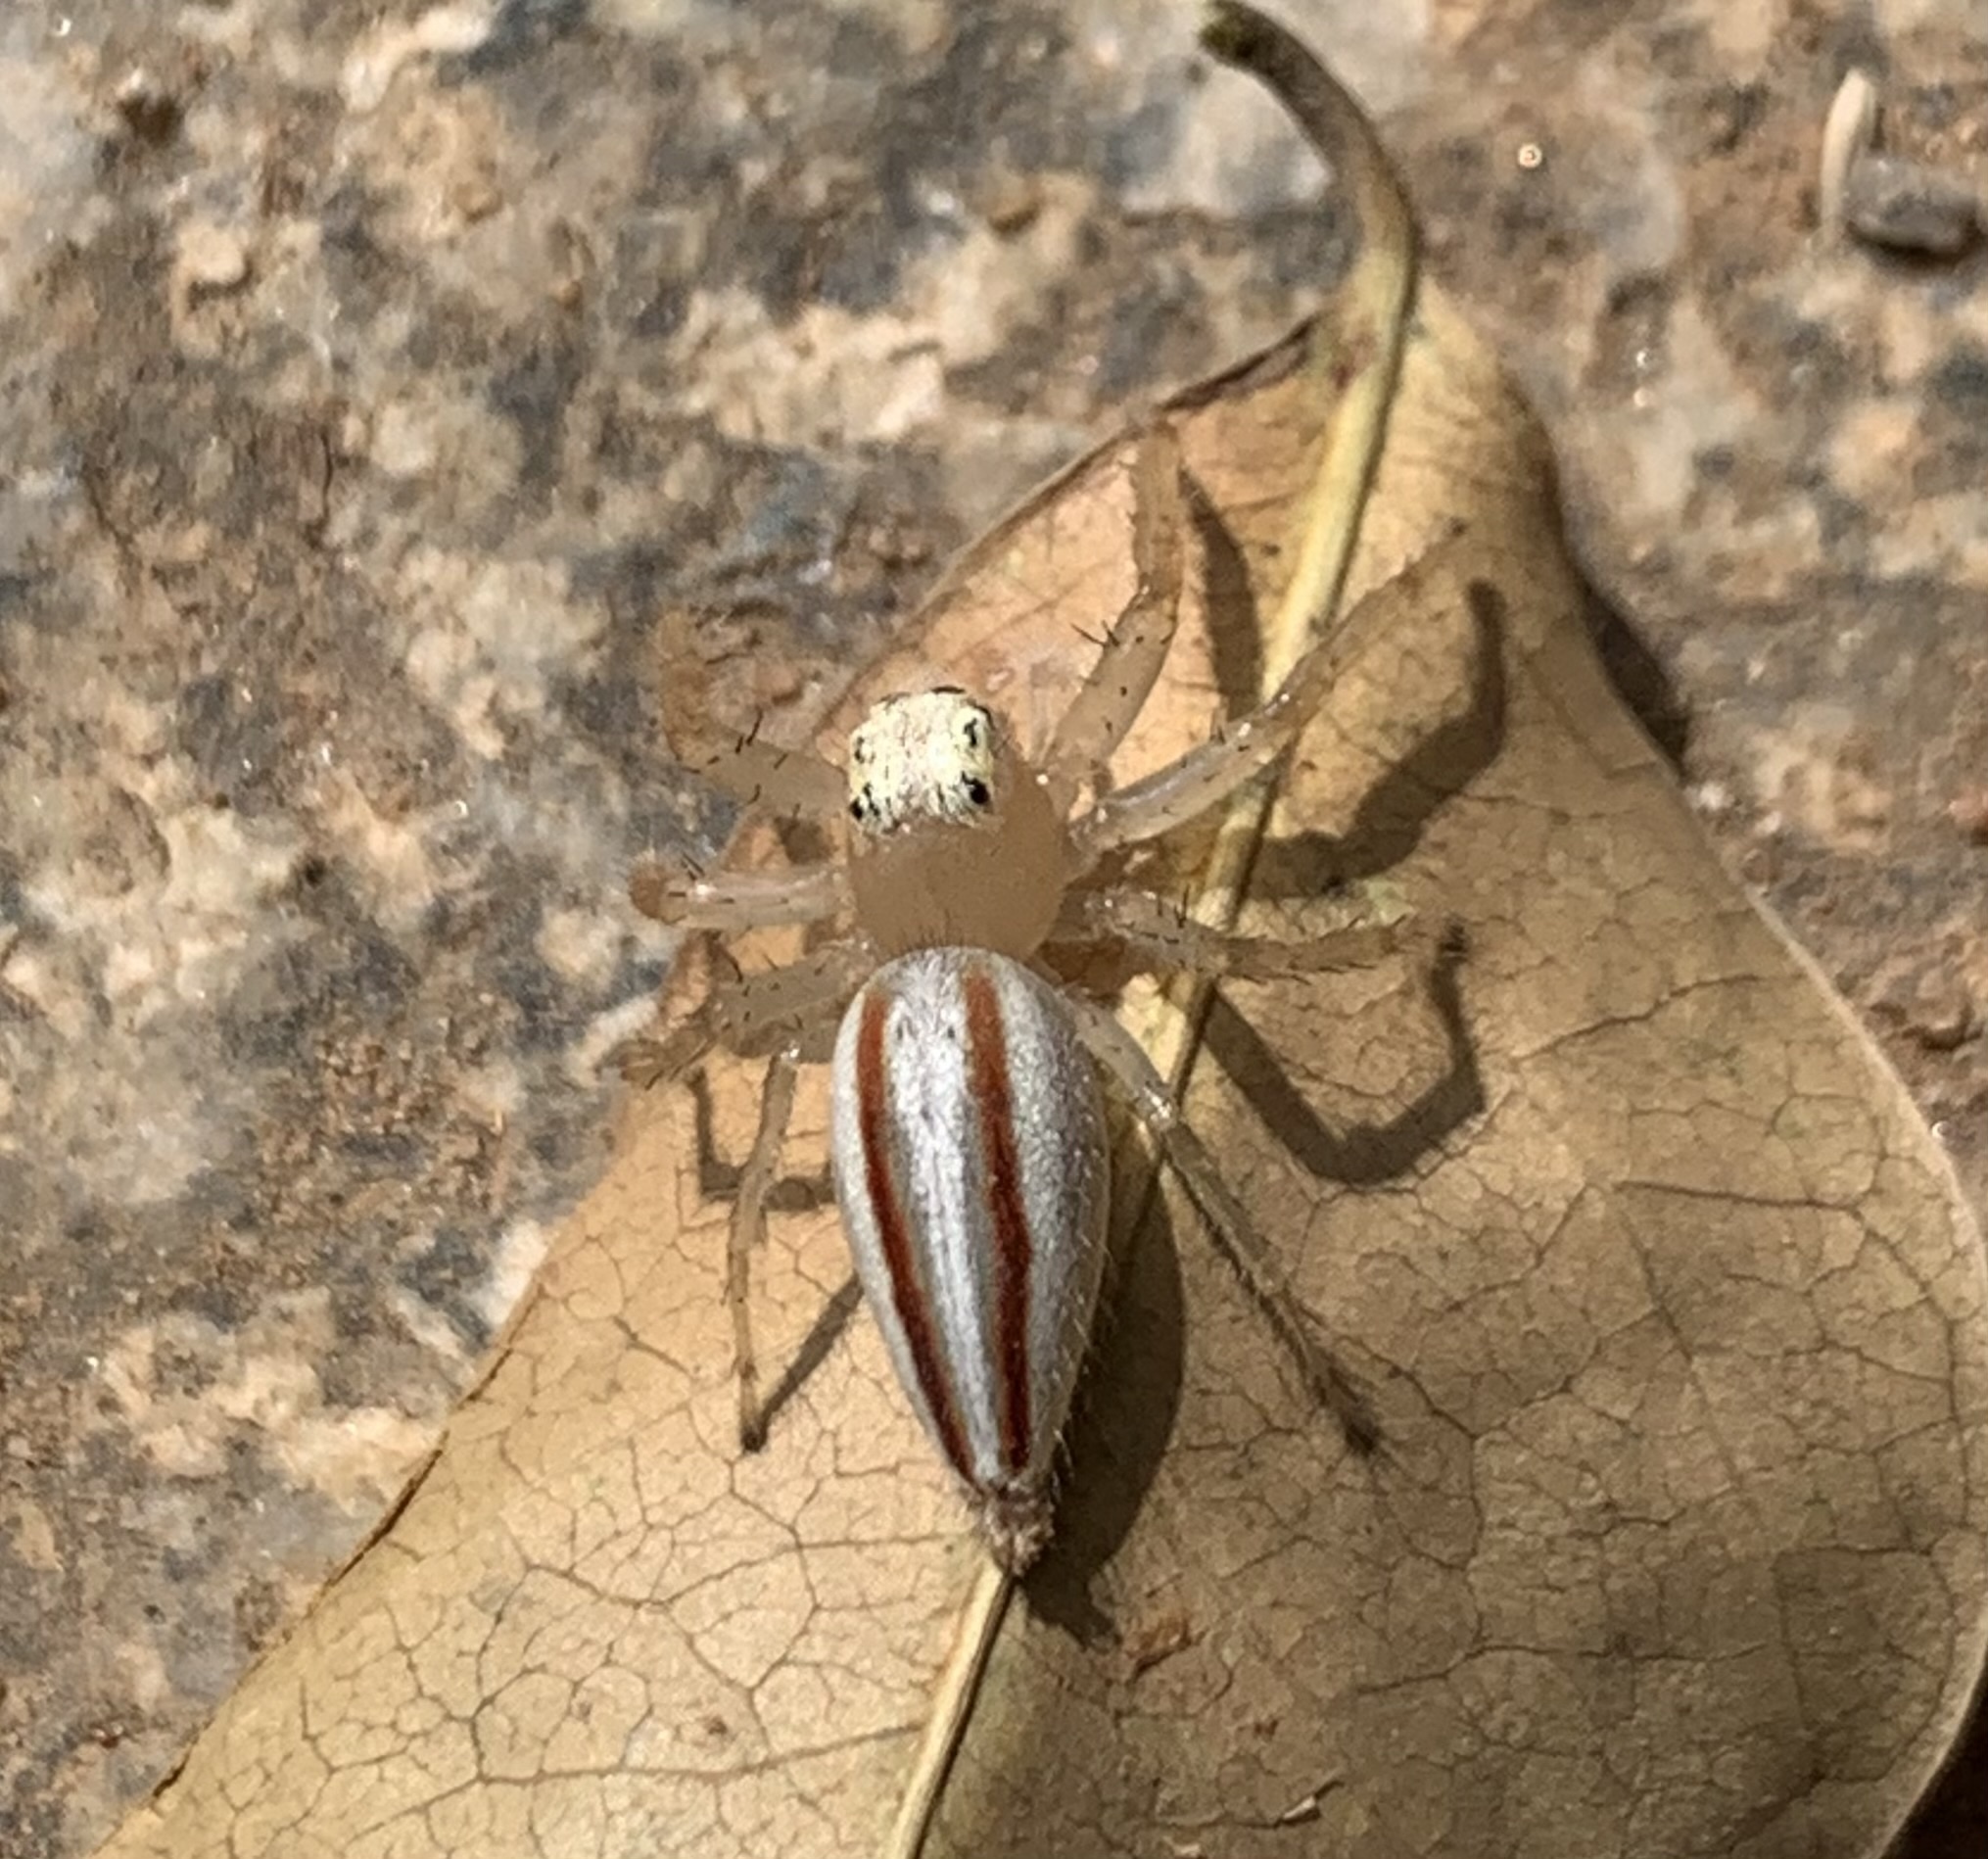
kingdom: Animalia
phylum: Arthropoda
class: Arachnida
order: Araneae
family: Salticidae
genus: Telamonia
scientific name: Telamonia dimidiata
